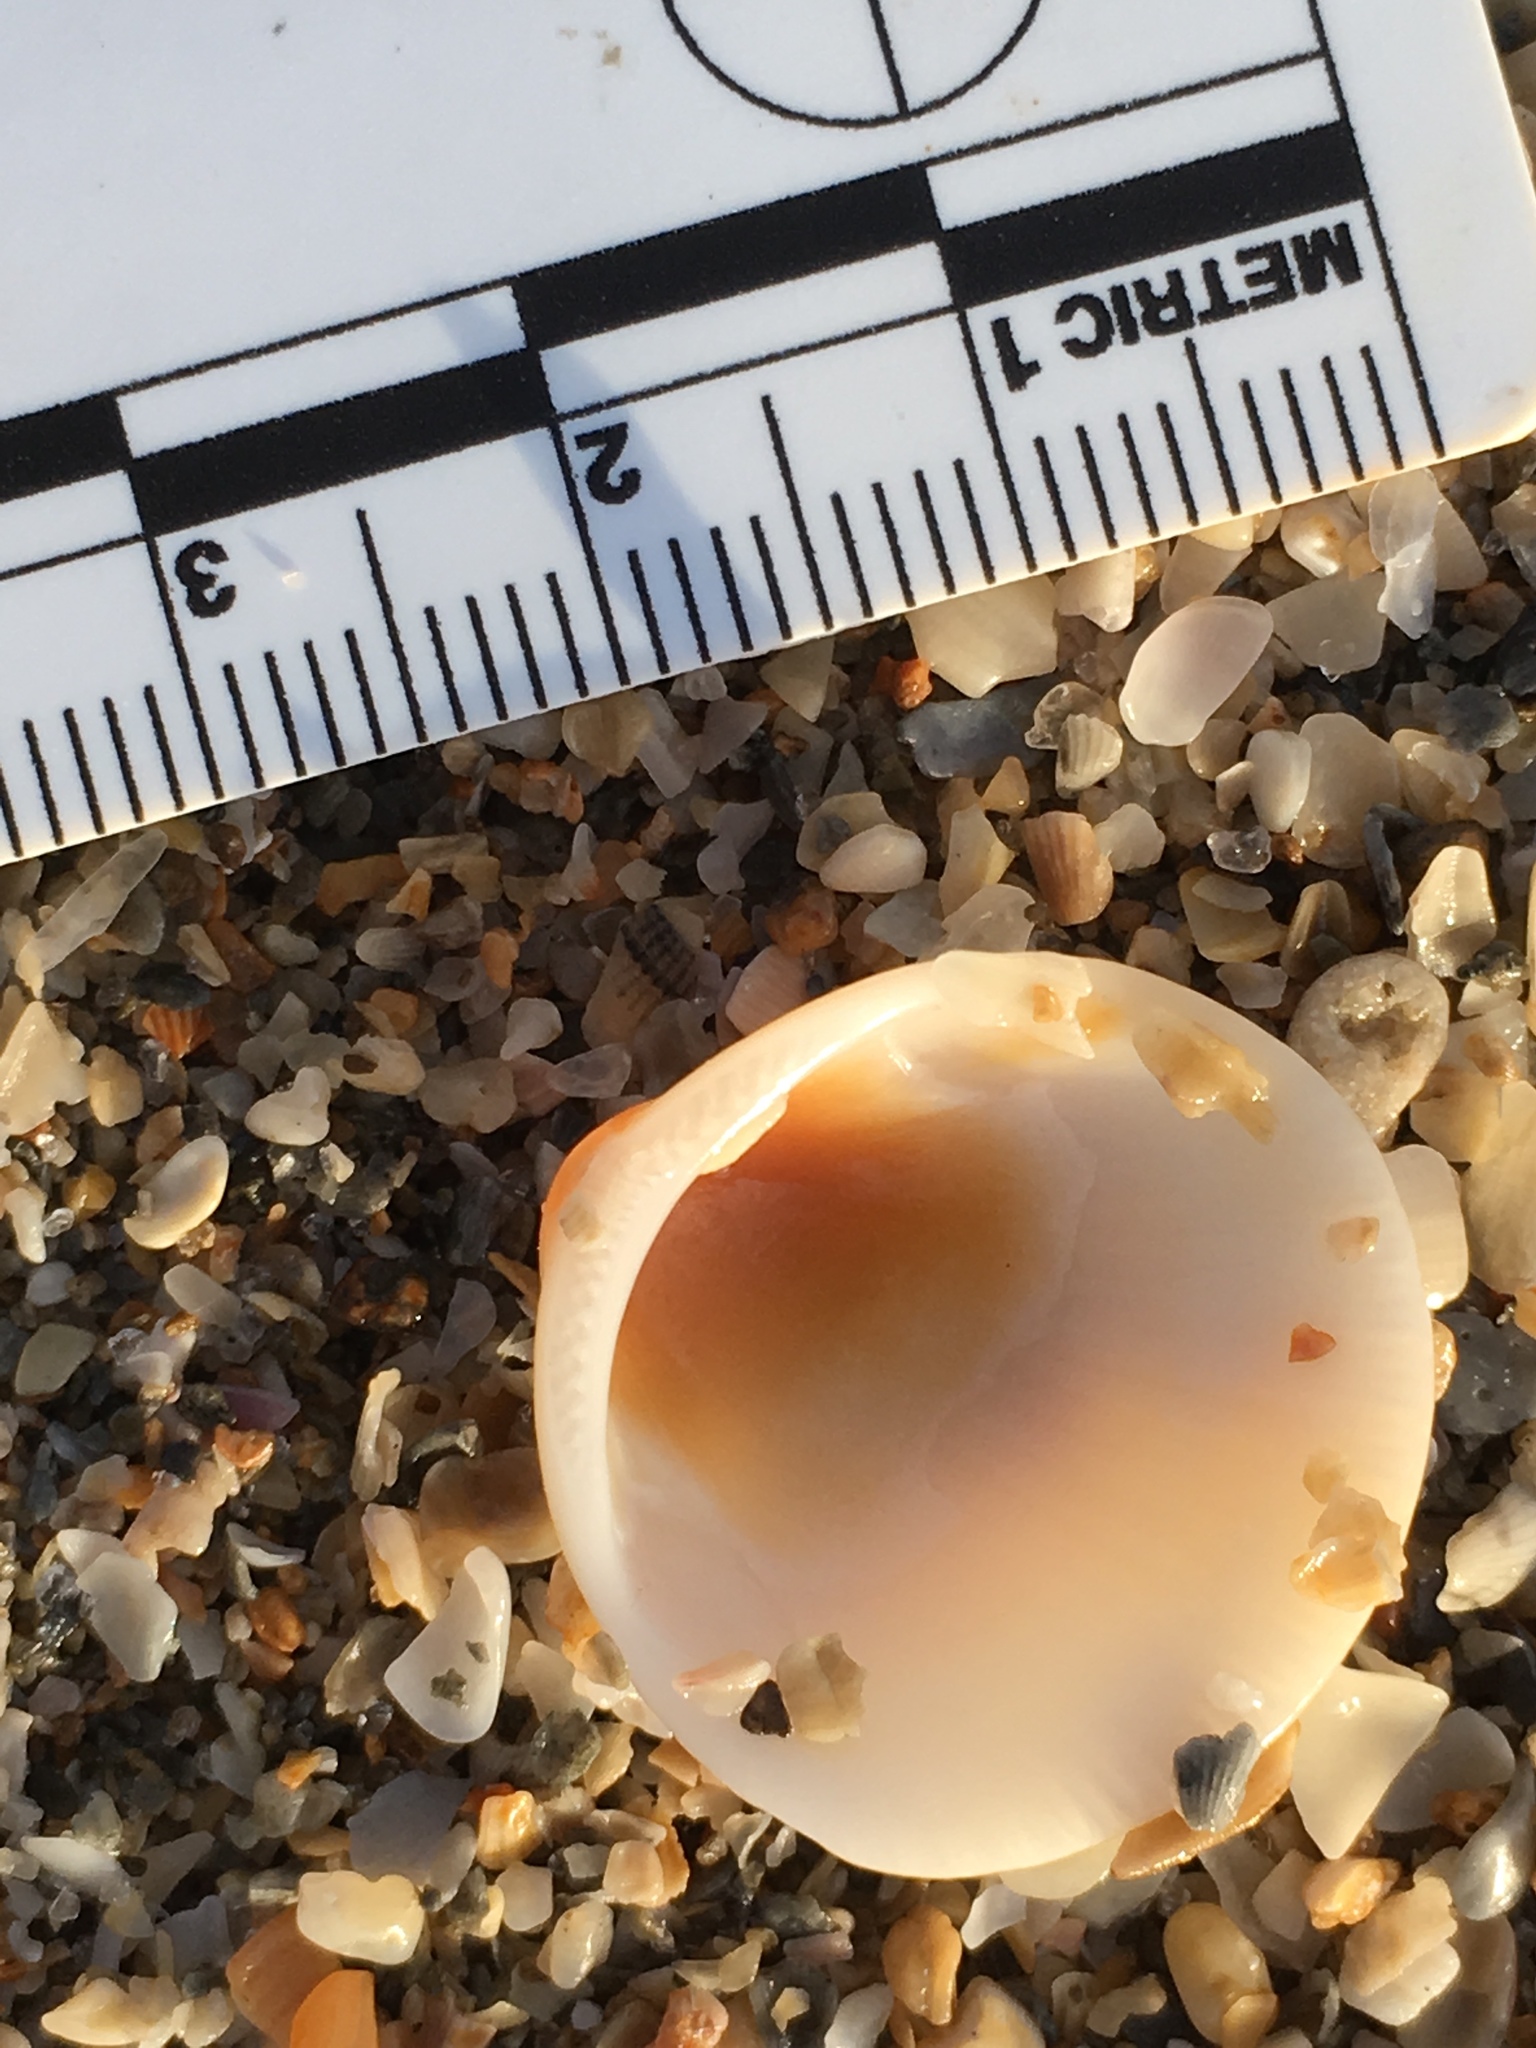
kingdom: Animalia
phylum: Mollusca
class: Bivalvia
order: Arcida
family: Glycymerididae
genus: Glycymeris
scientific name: Glycymeris spectralis
